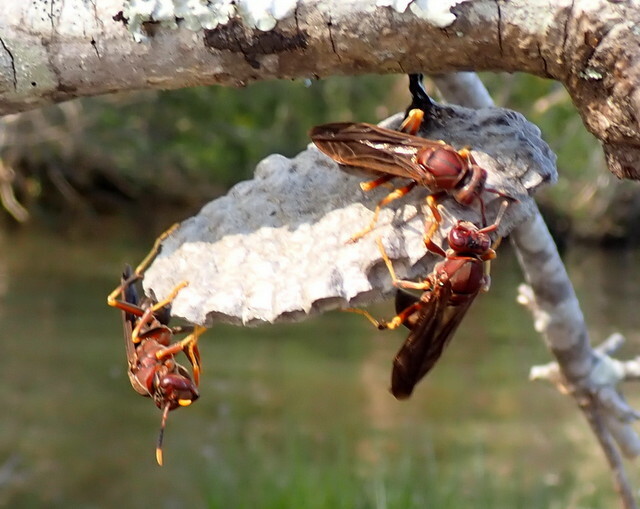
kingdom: Animalia
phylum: Arthropoda
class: Insecta
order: Hymenoptera
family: Eumenidae
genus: Polistes
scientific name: Polistes annularis
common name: Ringed paper wasp
